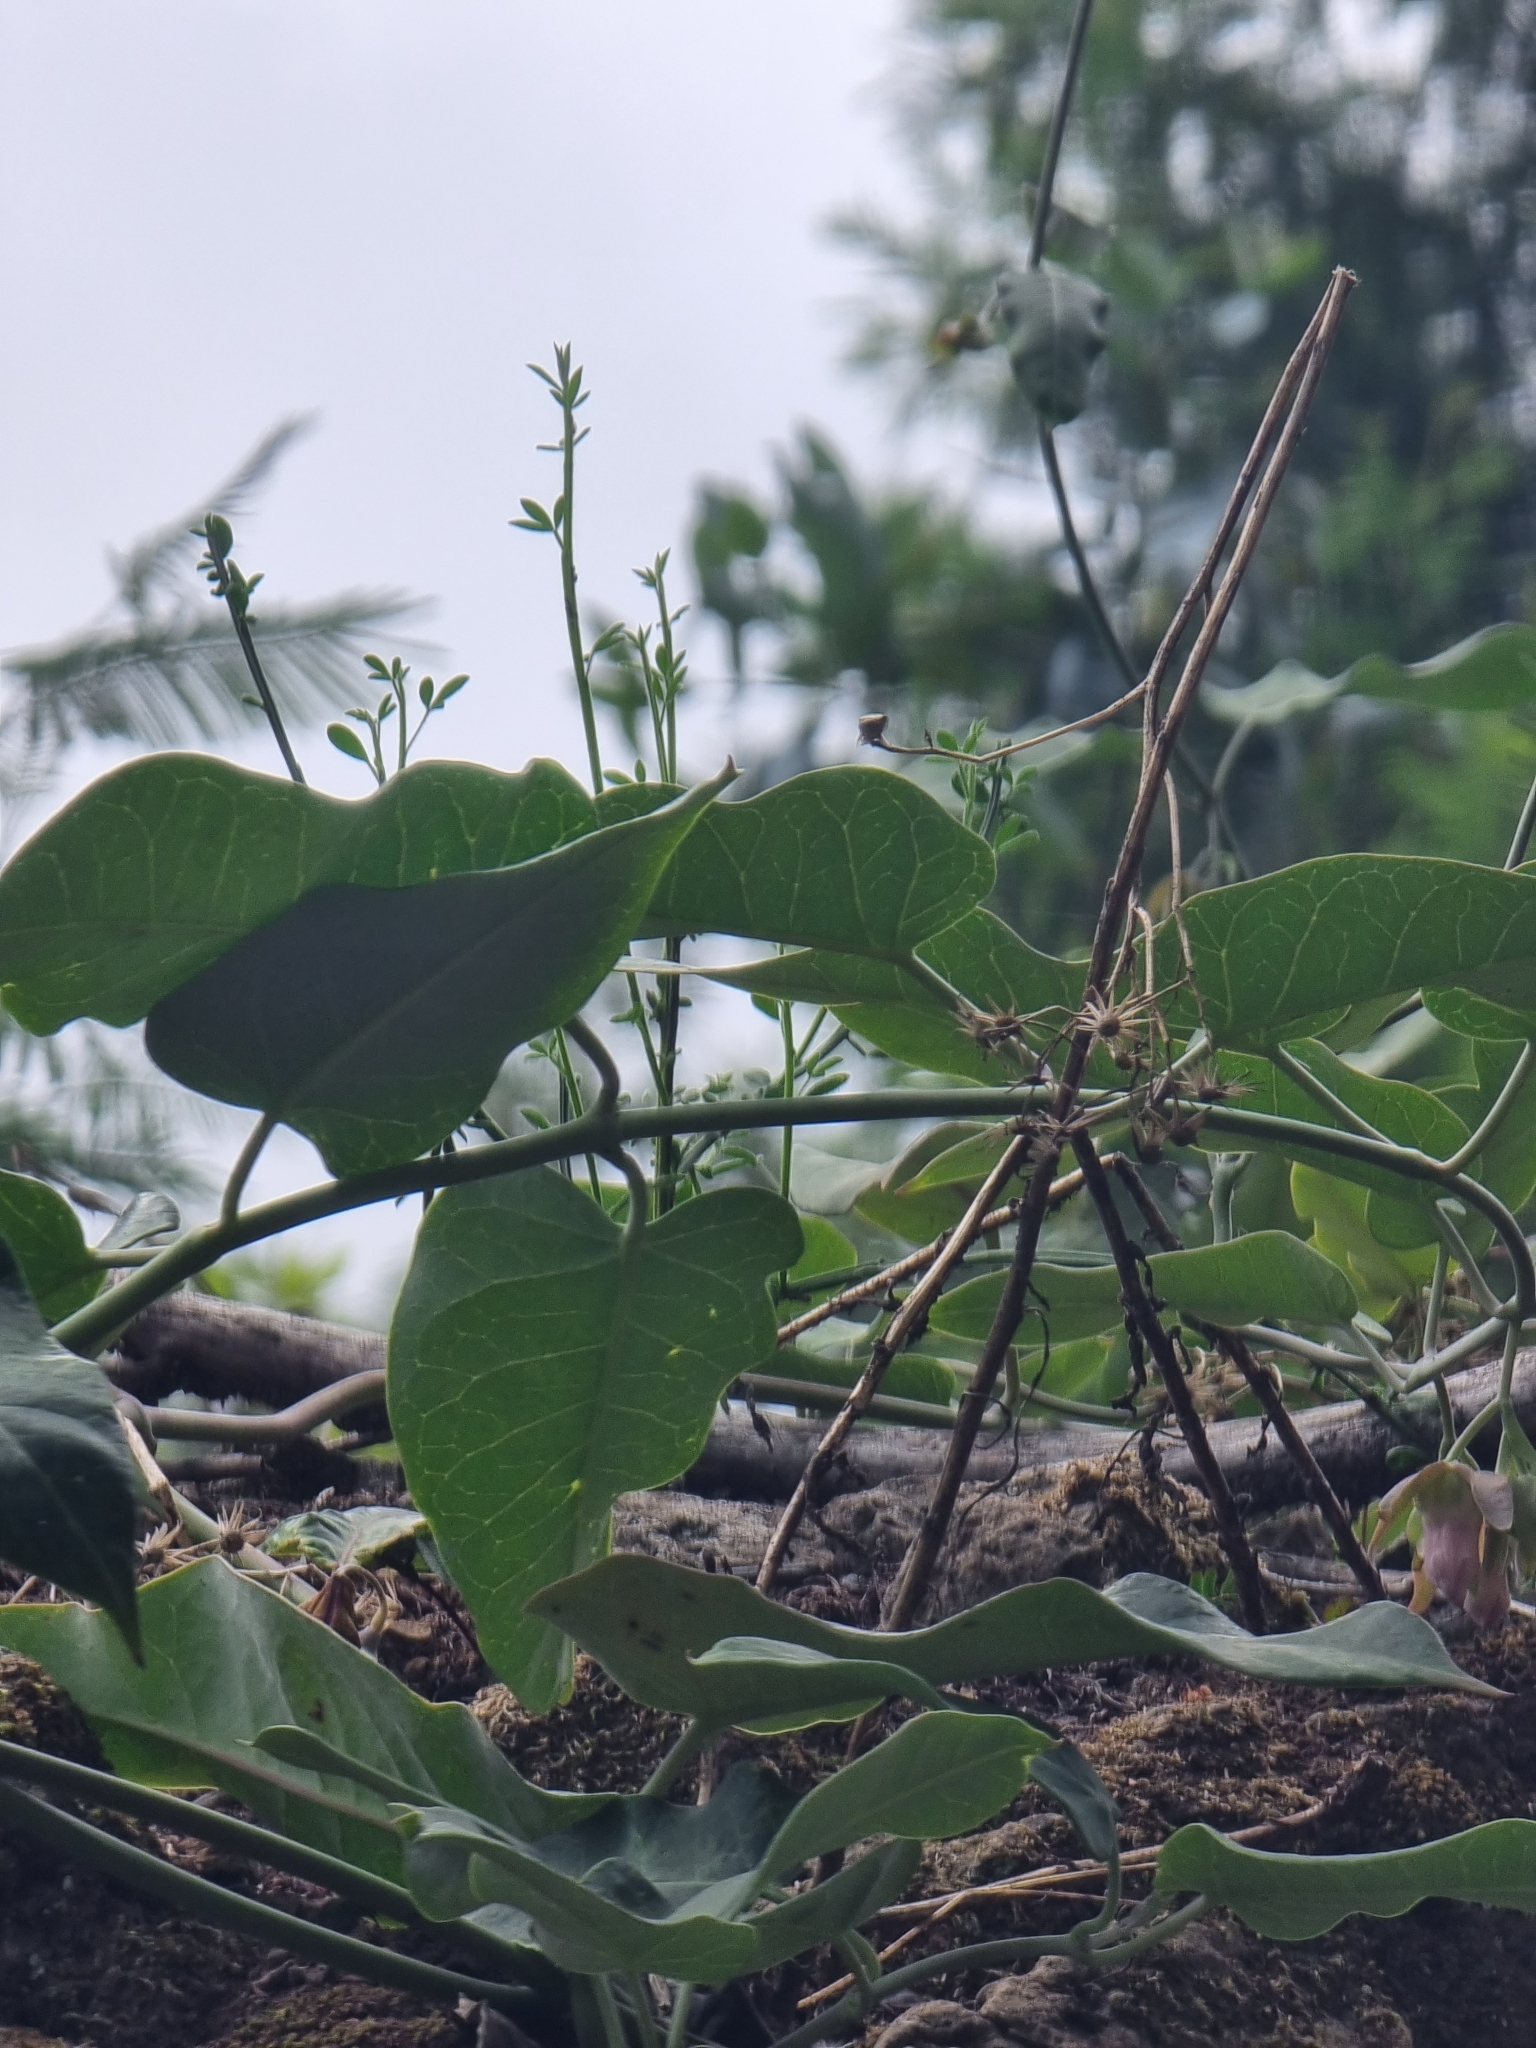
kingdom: Plantae
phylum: Tracheophyta
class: Magnoliopsida
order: Gentianales
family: Apocynaceae
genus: Araujia
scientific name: Araujia sericifera
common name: White bladderflower
